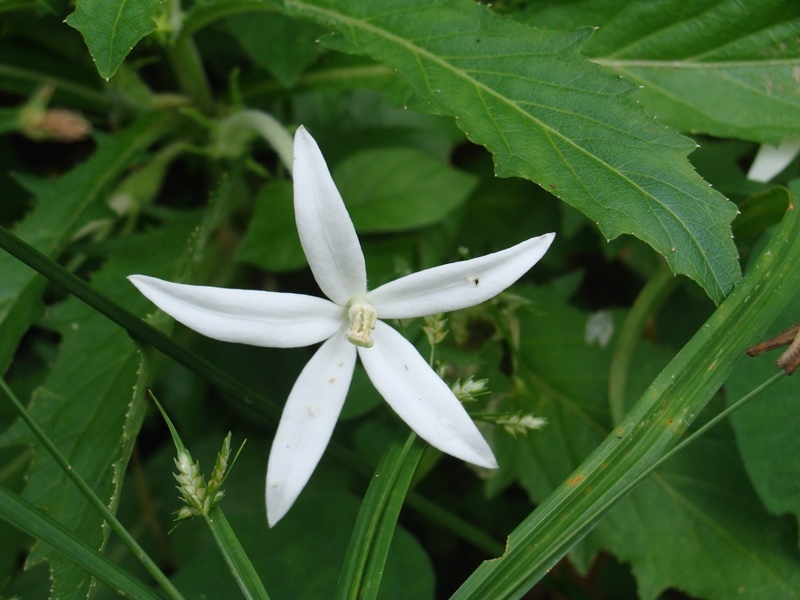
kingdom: Plantae
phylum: Tracheophyta
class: Magnoliopsida
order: Asterales
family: Campanulaceae
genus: Hippobroma
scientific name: Hippobroma longiflora
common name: Madamfate
